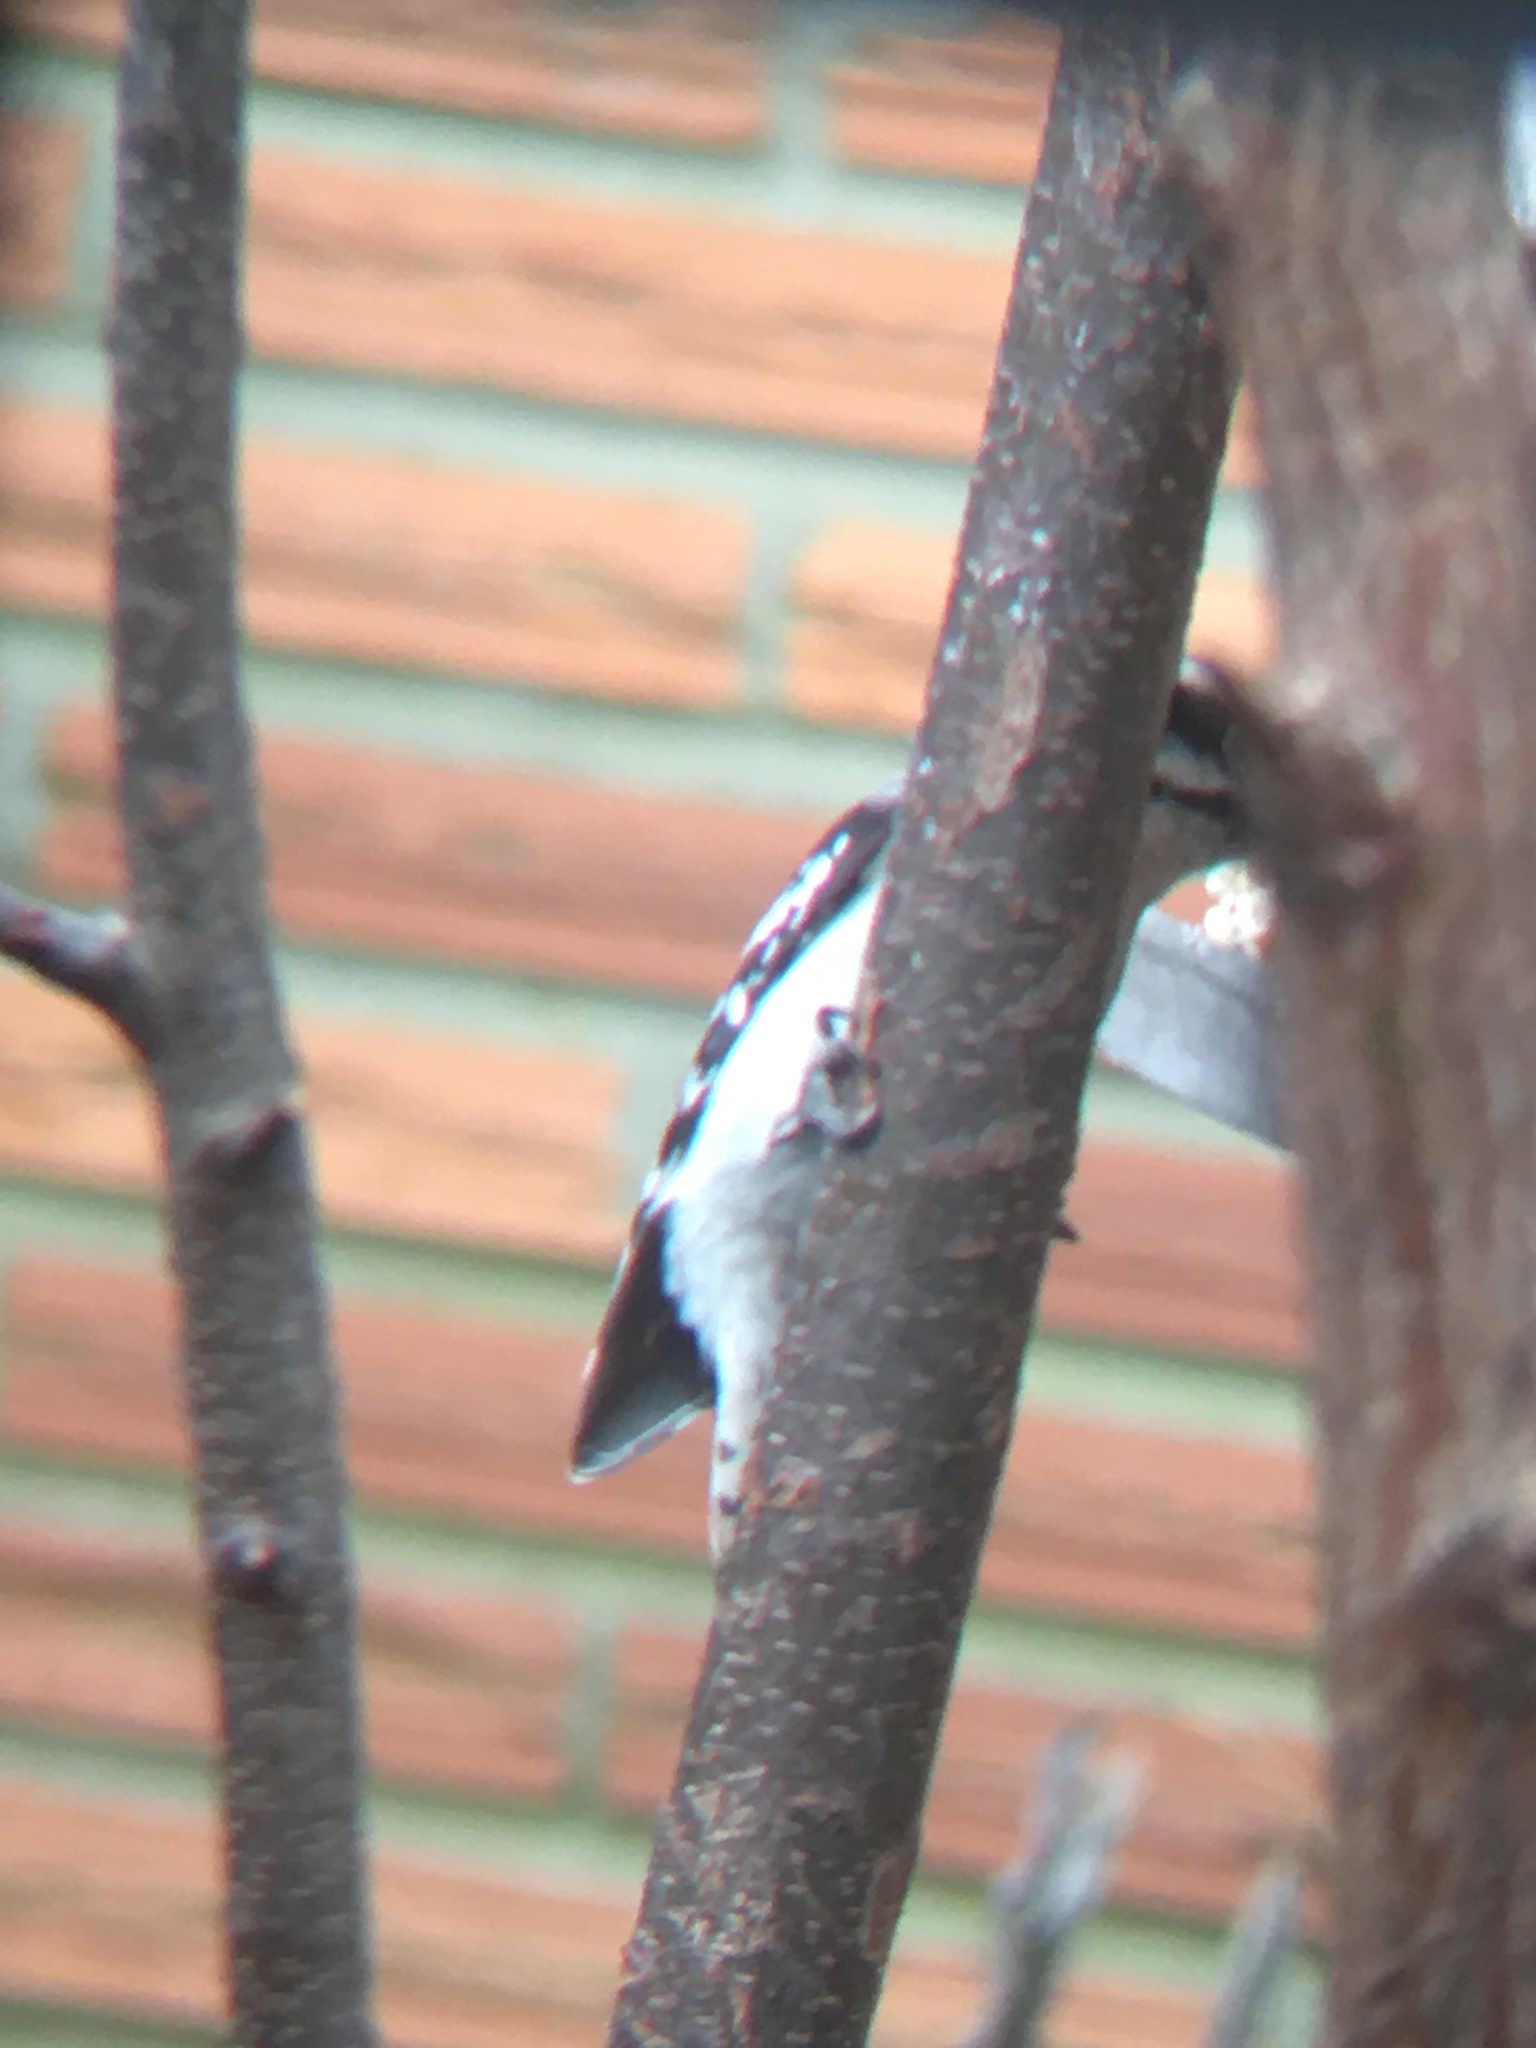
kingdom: Animalia
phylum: Chordata
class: Aves
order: Piciformes
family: Picidae
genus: Dryobates
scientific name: Dryobates pubescens
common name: Downy woodpecker
